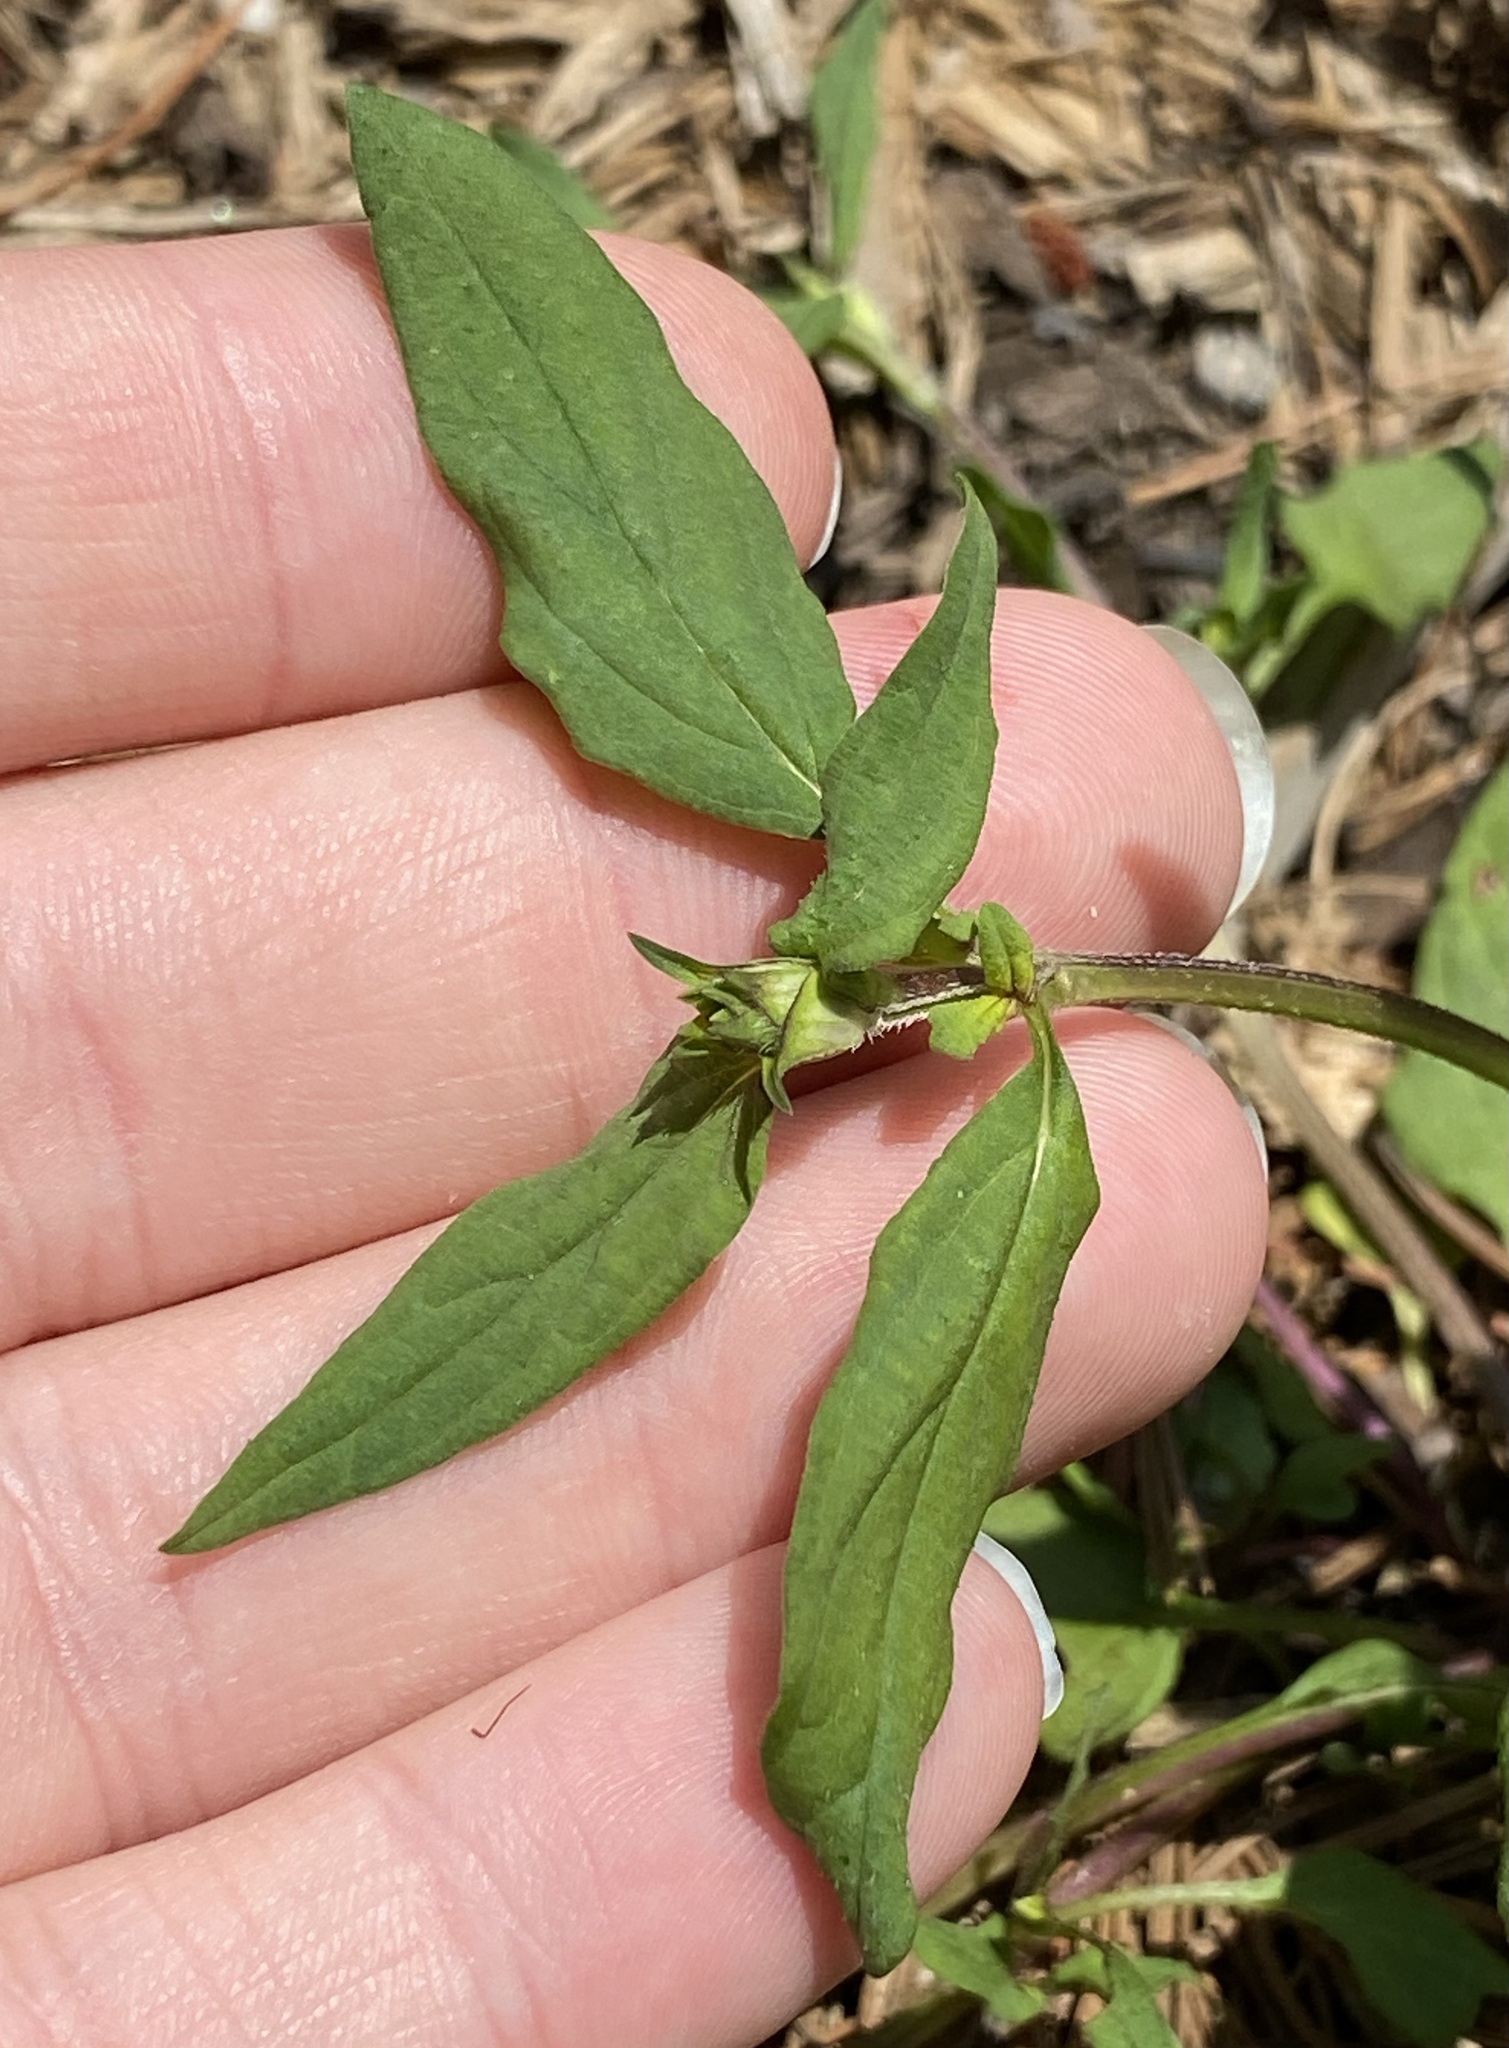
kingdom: Plantae
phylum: Tracheophyta
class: Magnoliopsida
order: Lamiales
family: Lamiaceae
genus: Prunella
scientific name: Prunella vulgaris
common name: Heal-all
